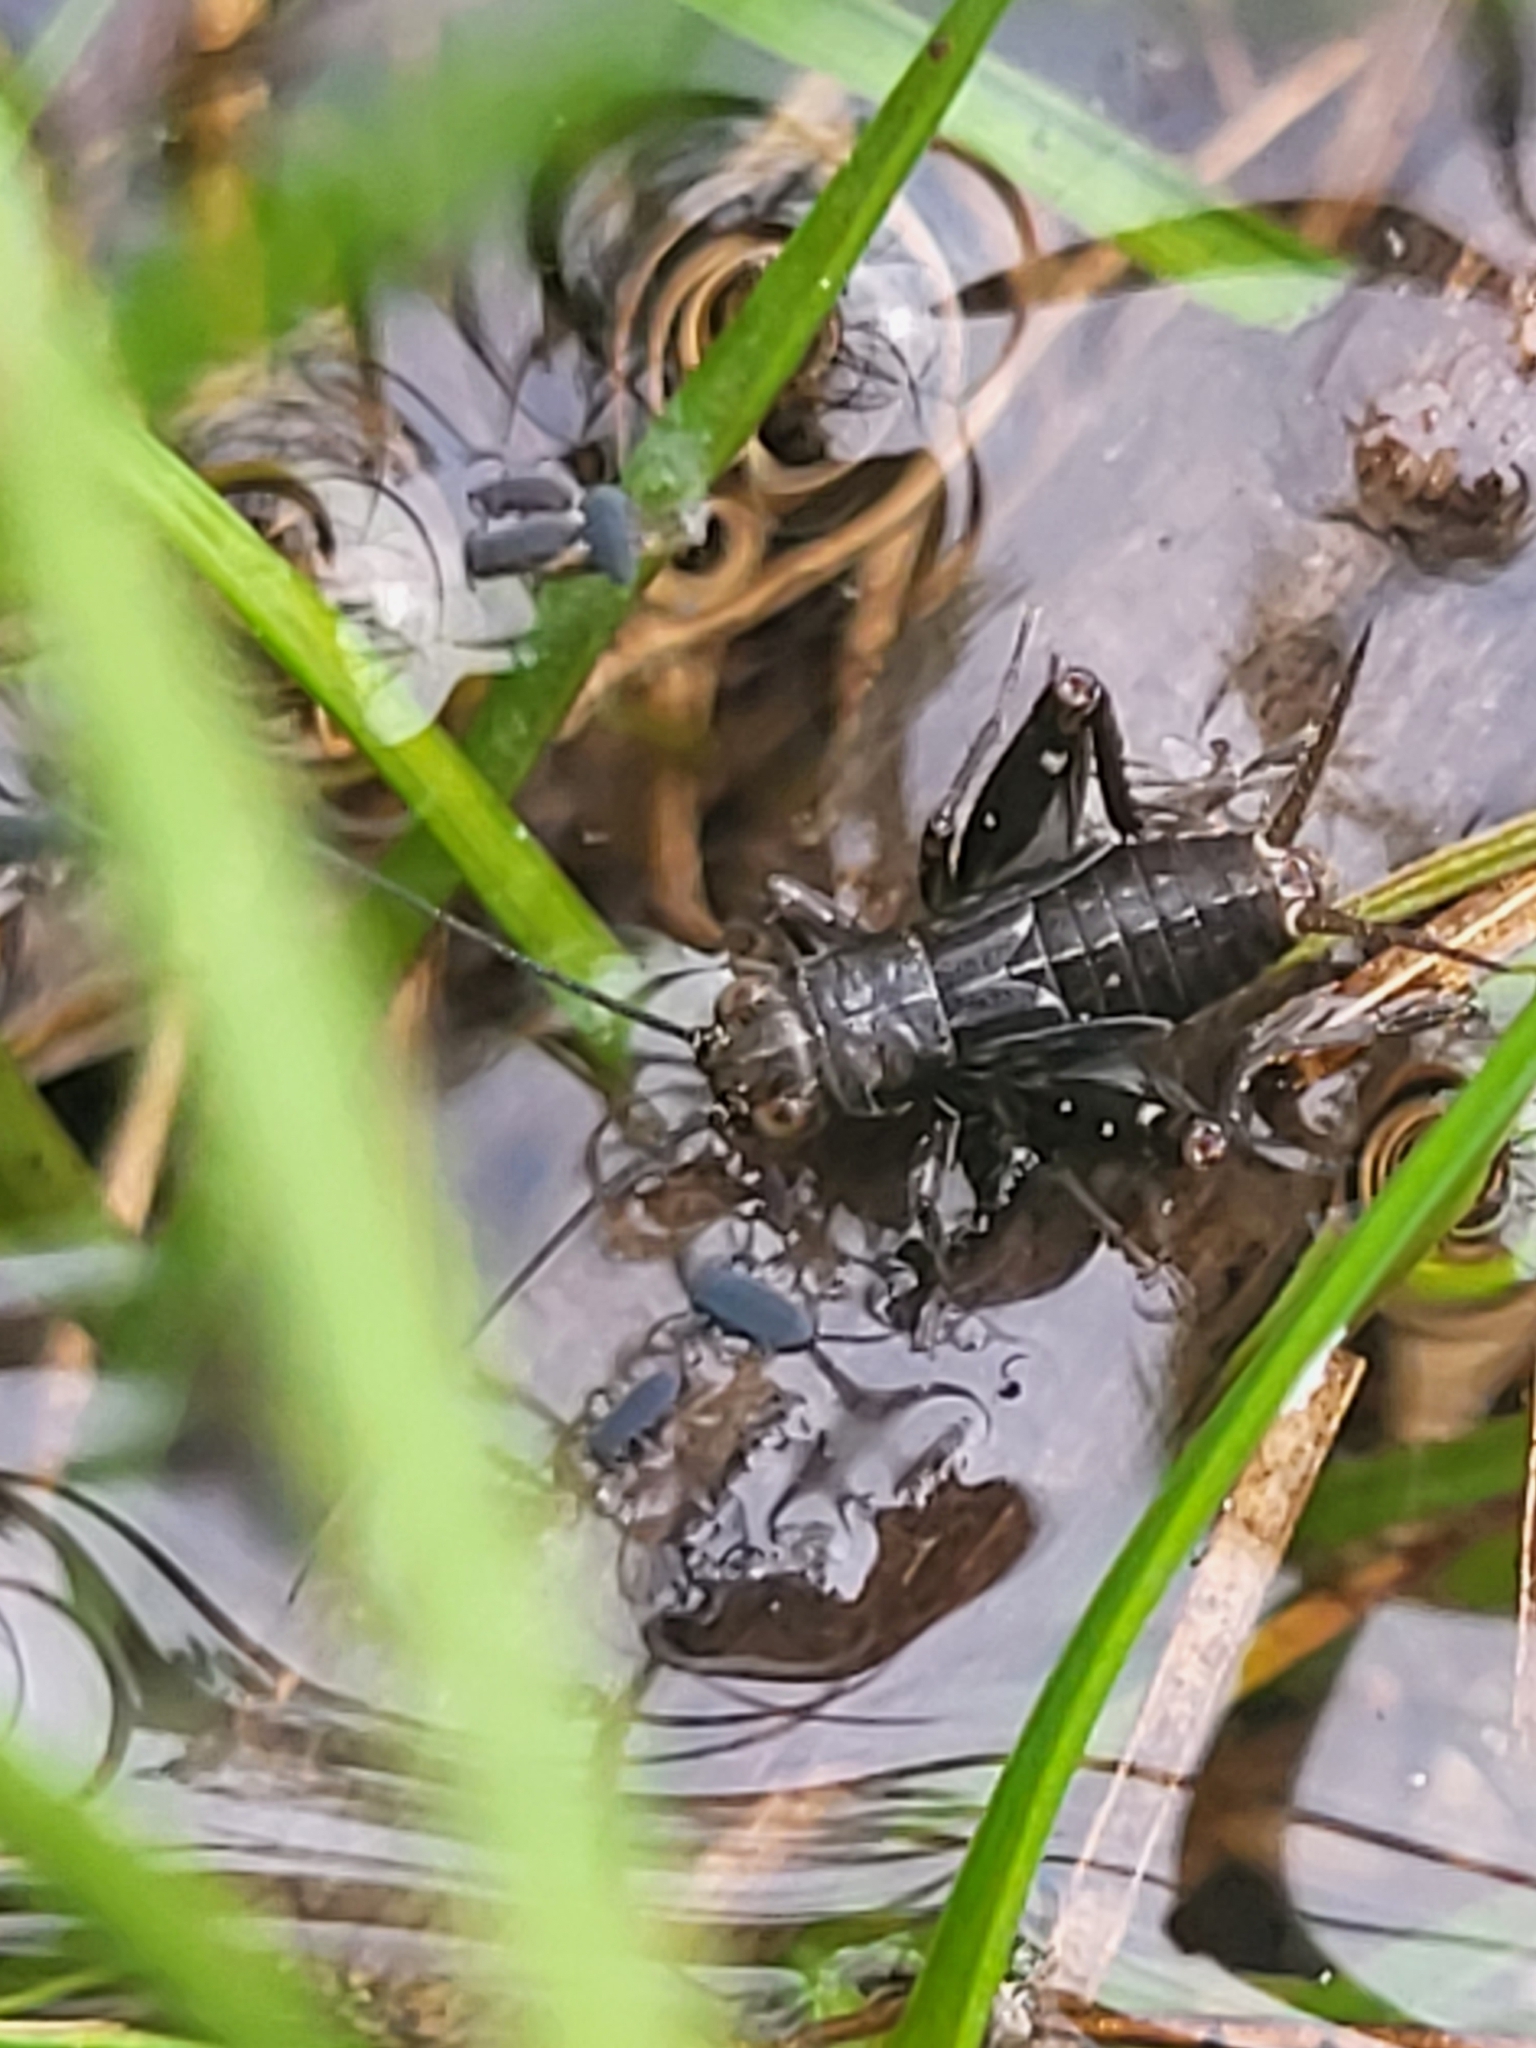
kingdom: Animalia
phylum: Arthropoda
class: Insecta
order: Orthoptera
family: Trigonidiidae
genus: Pteronemobius
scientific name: Pteronemobius heydenii
